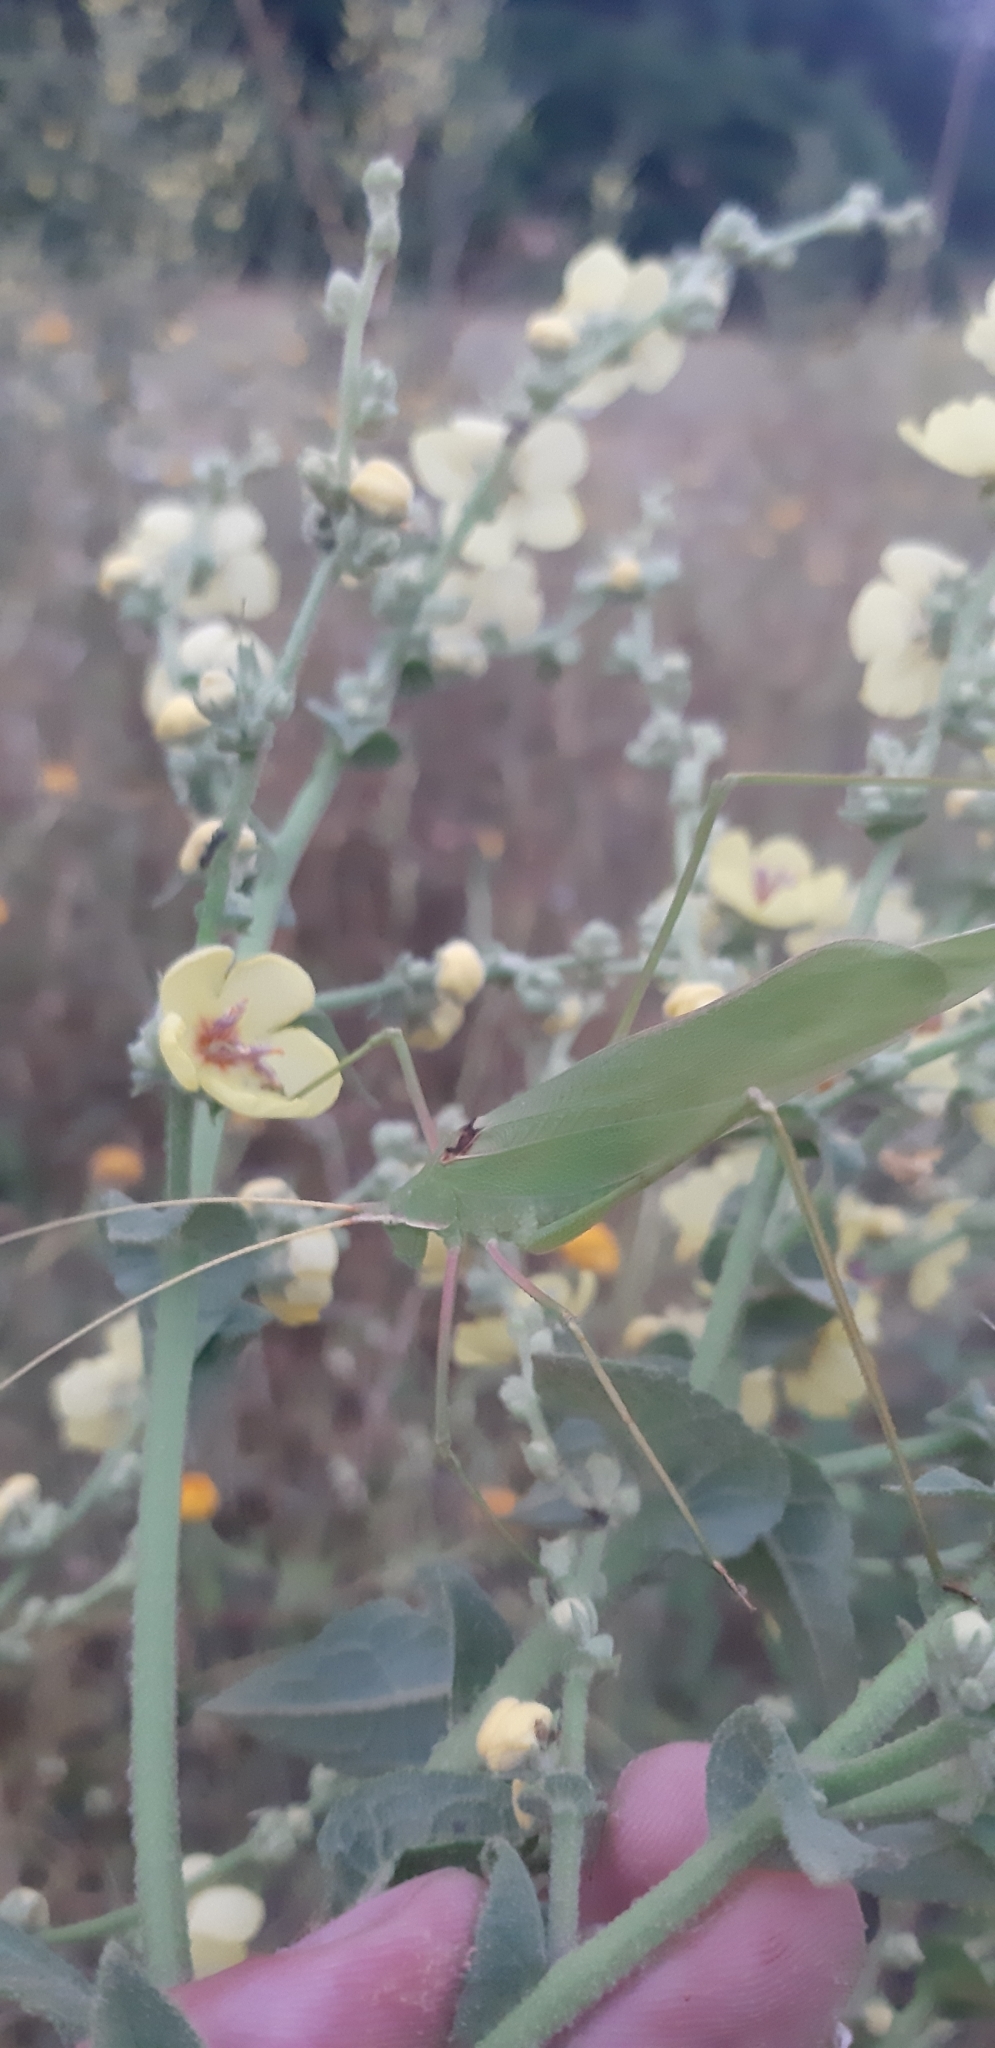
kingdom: Animalia
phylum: Arthropoda
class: Insecta
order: Orthoptera
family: Tettigoniidae
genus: Acrometopa
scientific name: Acrometopa italica
